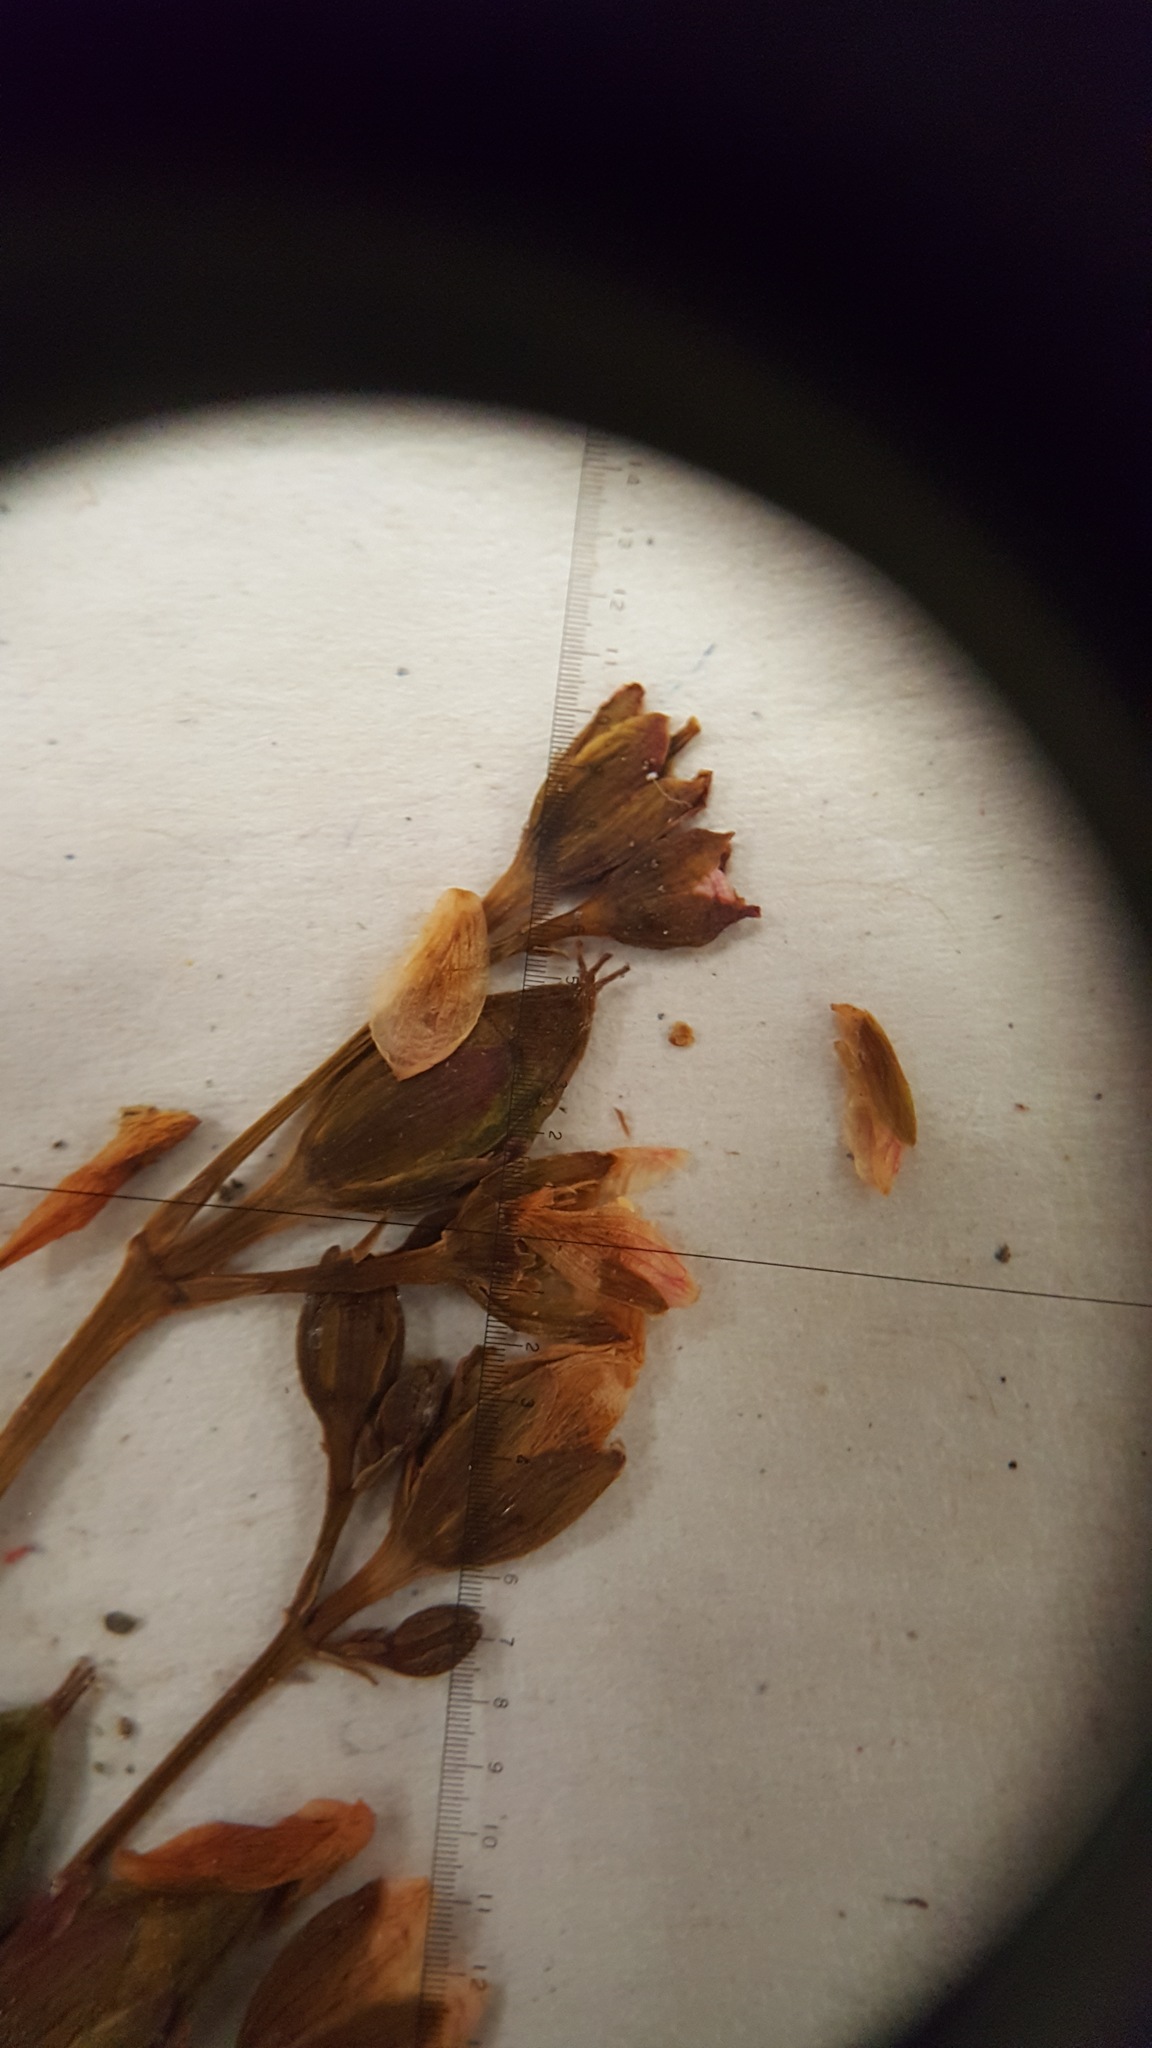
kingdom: Plantae
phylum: Tracheophyta
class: Magnoliopsida
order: Malpighiales
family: Hypericaceae
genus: Triadenum
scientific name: Triadenum fraseri
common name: Fraser's marsh st. johnswort
